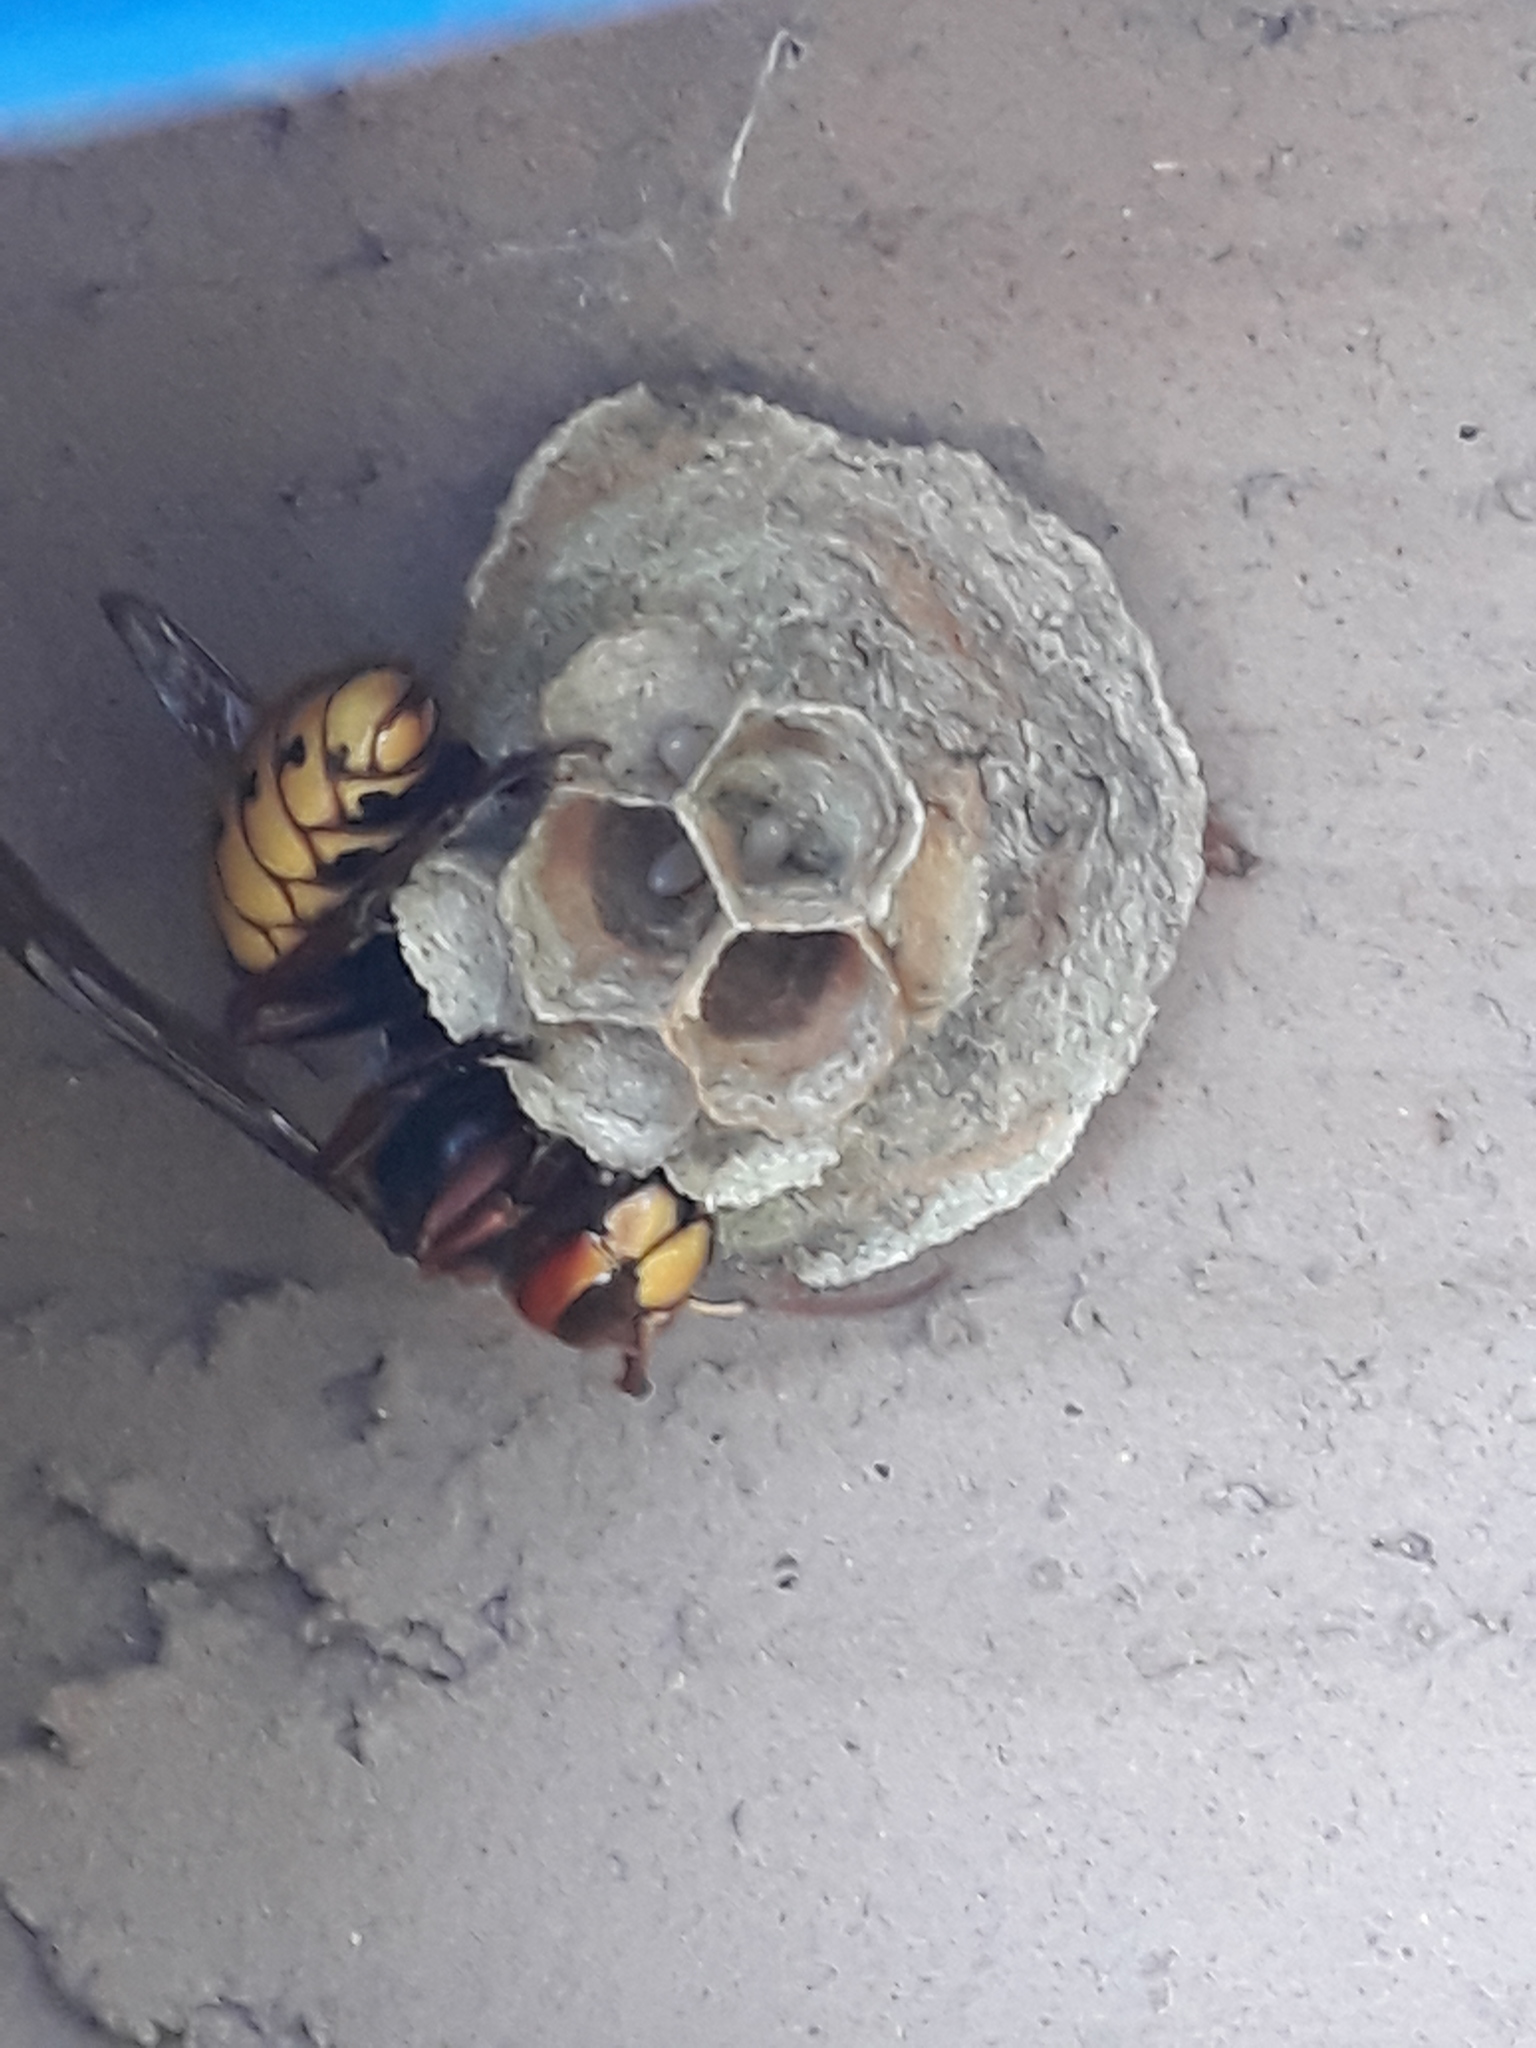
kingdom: Animalia
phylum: Arthropoda
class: Insecta
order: Hymenoptera
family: Vespidae
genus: Vespa
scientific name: Vespa crabro
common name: Hornet
